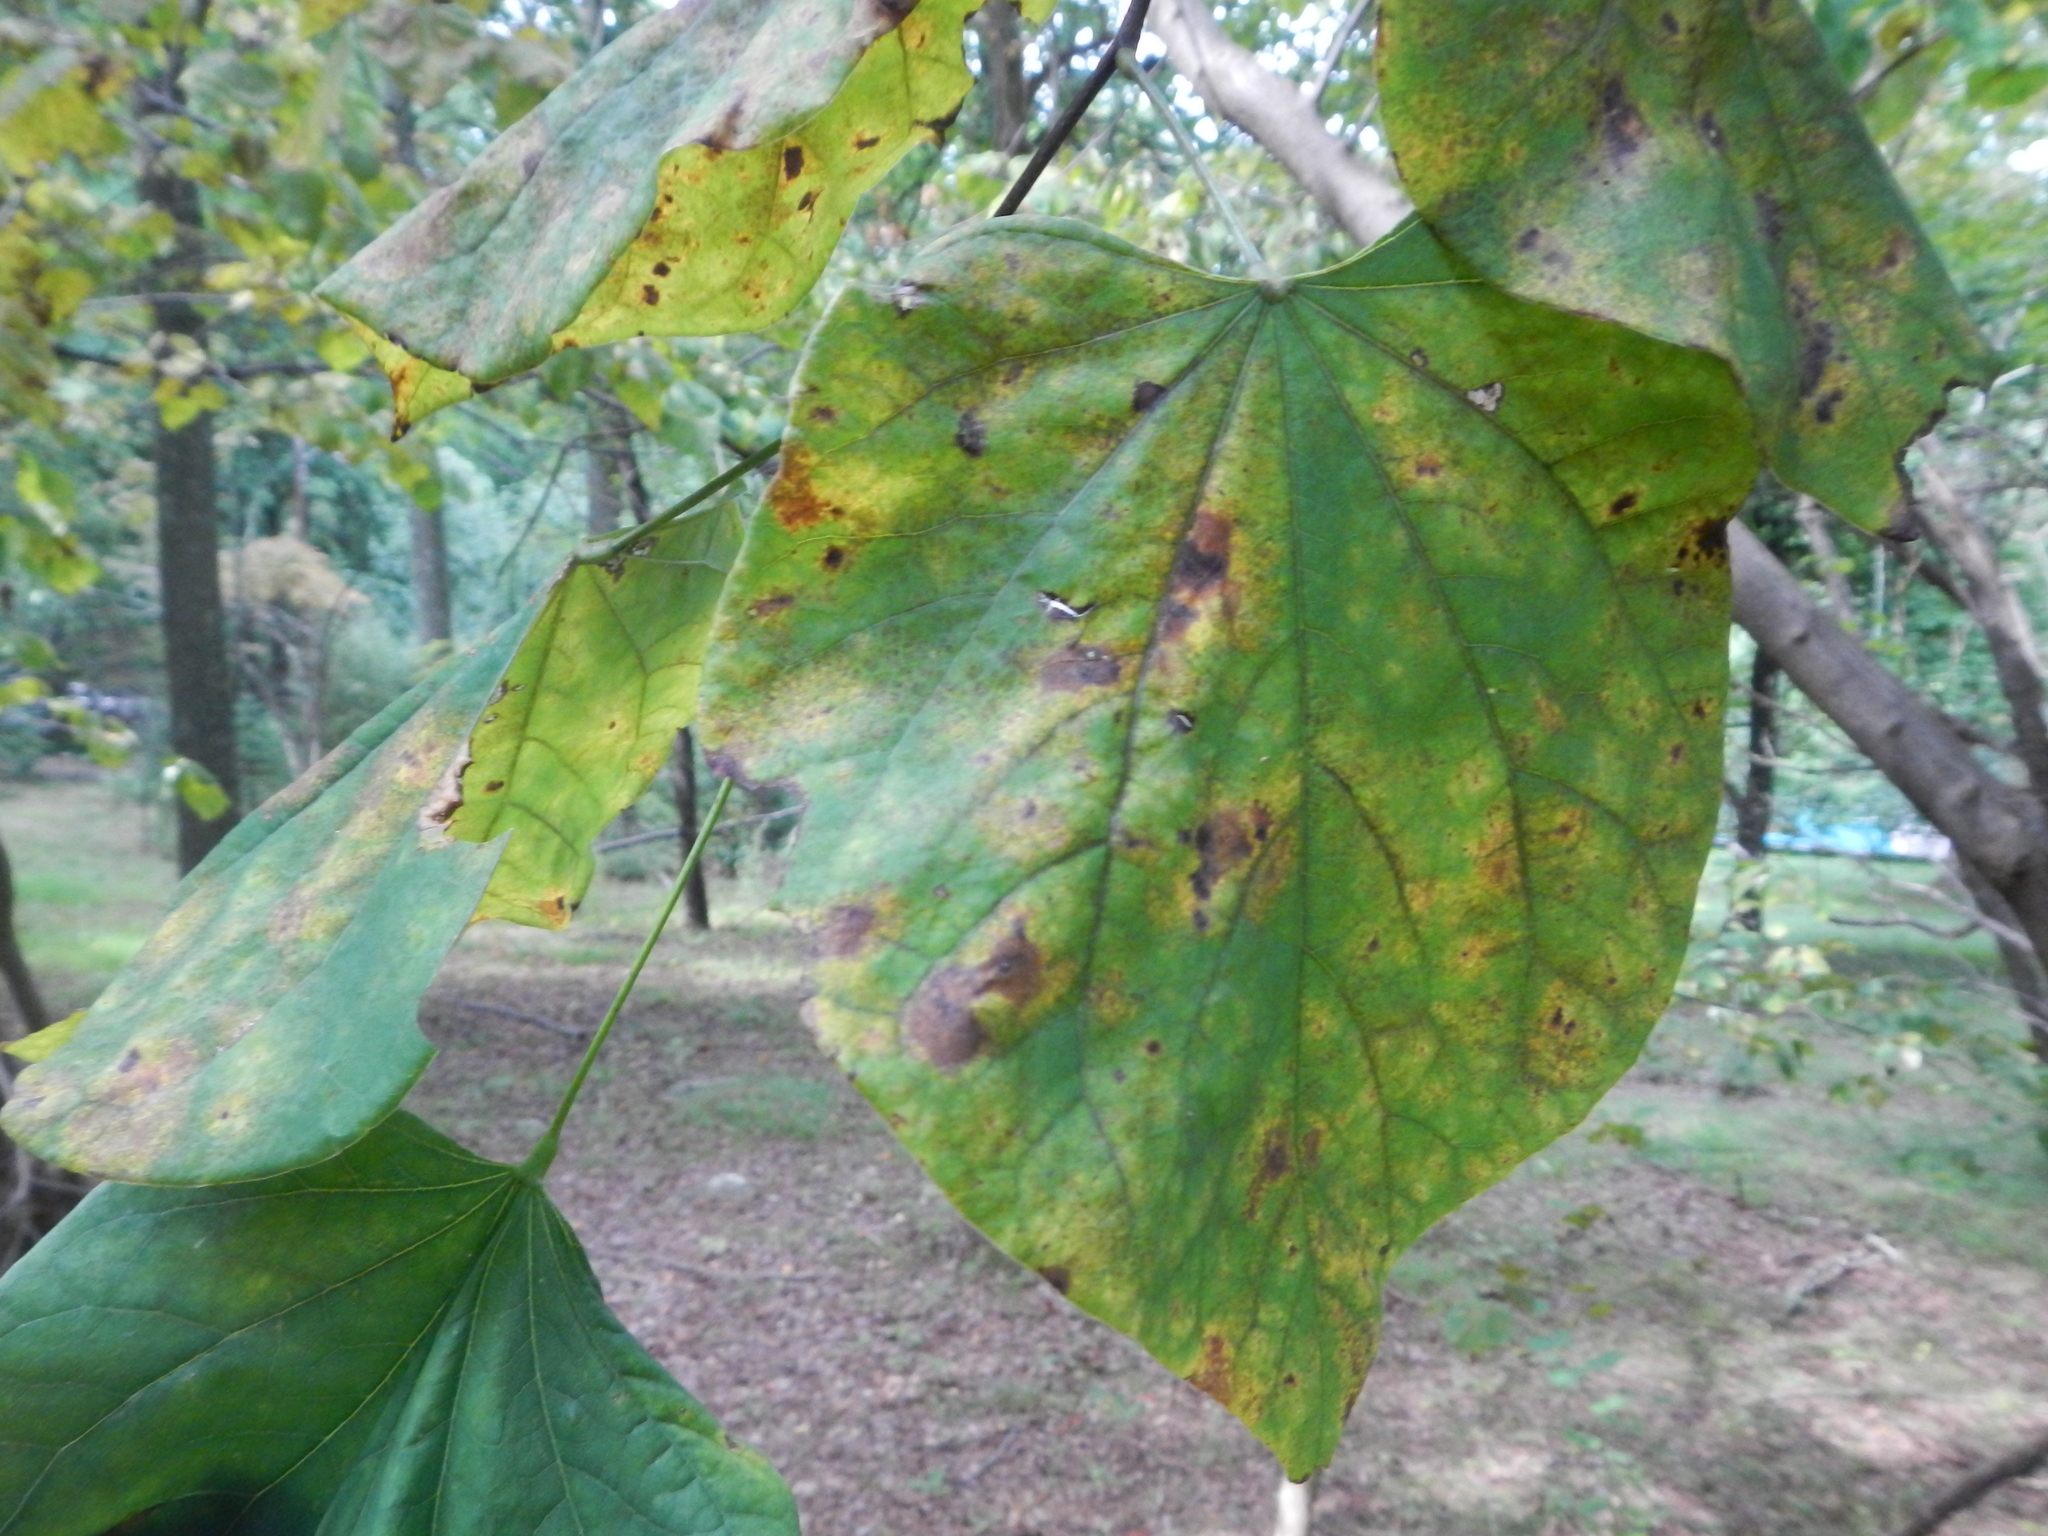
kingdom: Plantae
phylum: Tracheophyta
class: Magnoliopsida
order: Fabales
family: Fabaceae
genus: Cercis
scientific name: Cercis canadensis
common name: Eastern redbud
